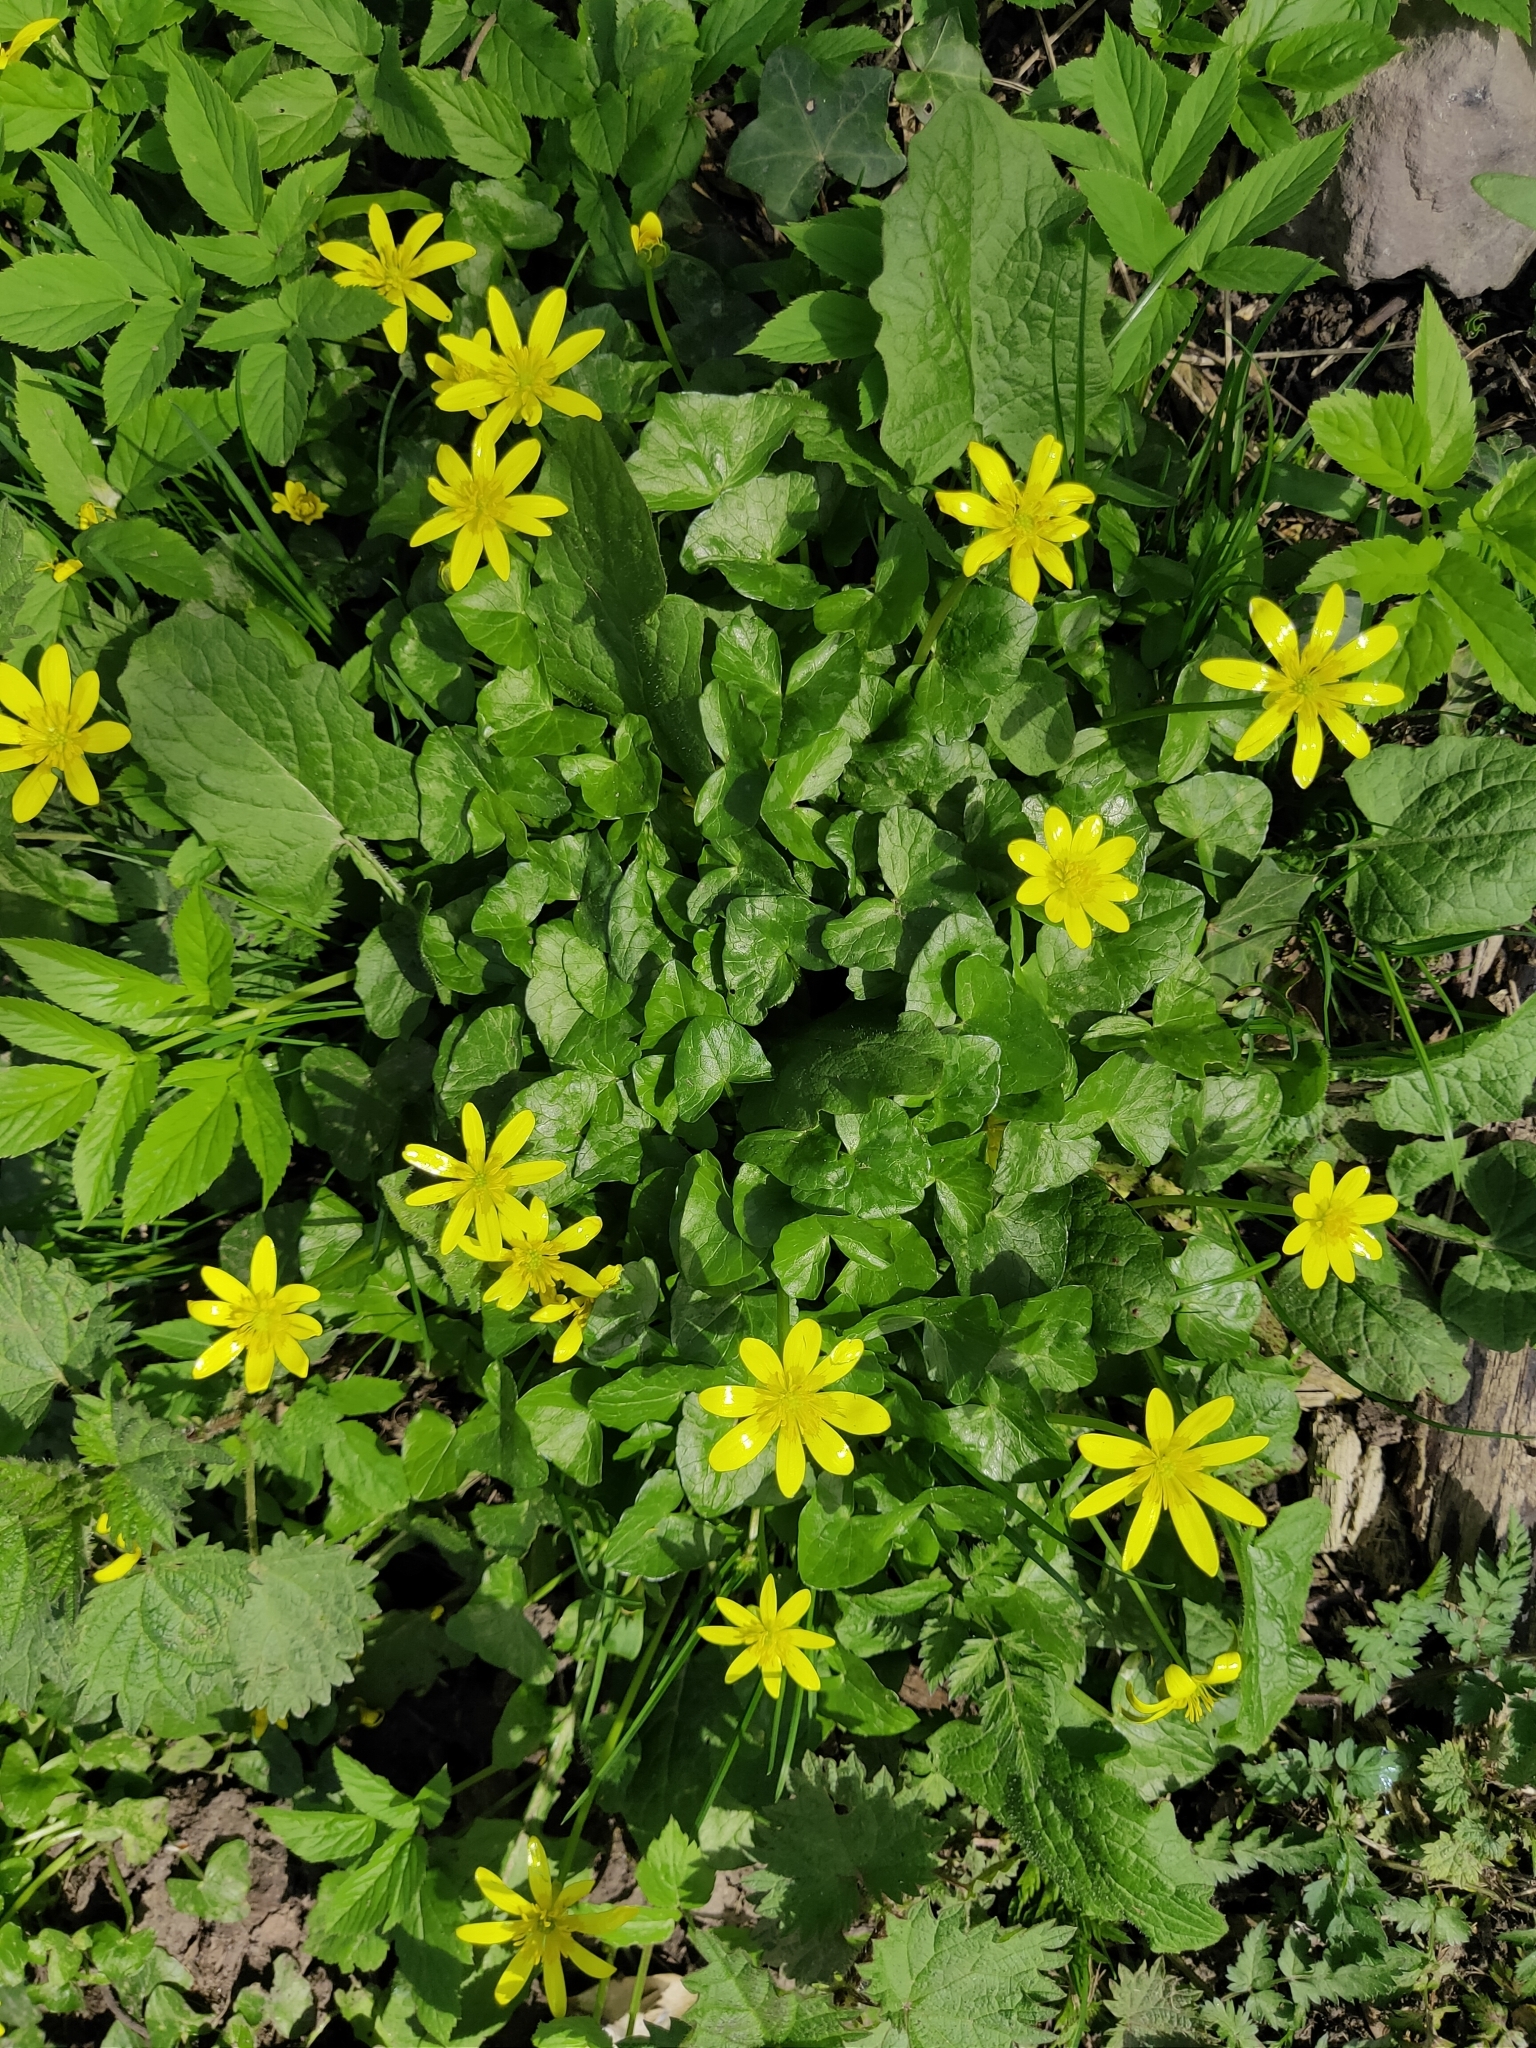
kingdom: Plantae
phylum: Tracheophyta
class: Magnoliopsida
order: Ranunculales
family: Ranunculaceae
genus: Ficaria
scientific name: Ficaria verna
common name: Lesser celandine
